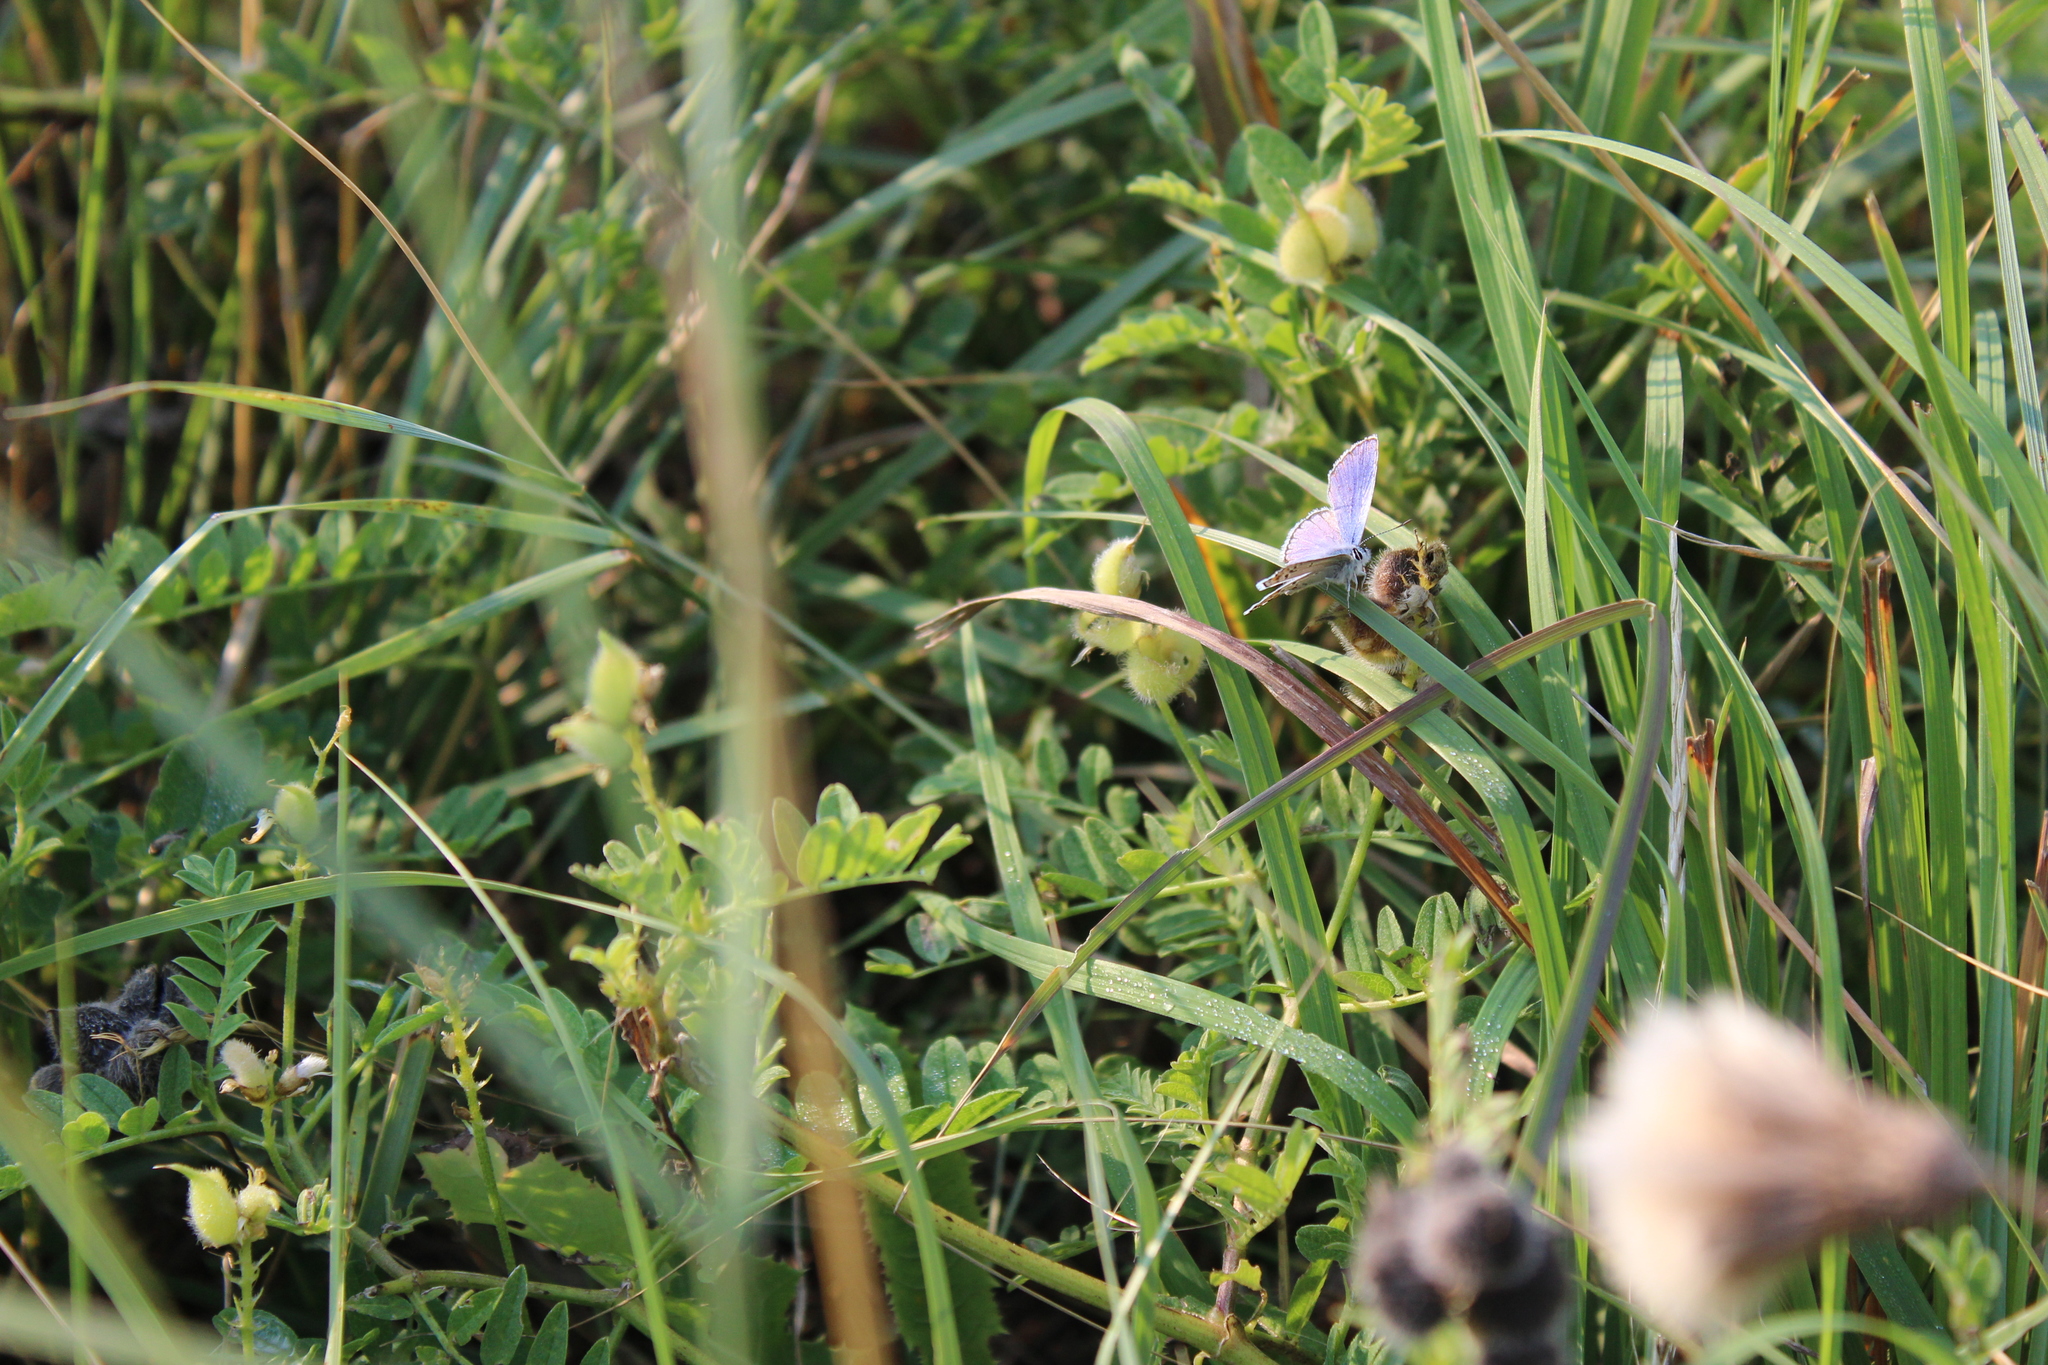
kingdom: Animalia
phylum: Arthropoda
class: Insecta
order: Lepidoptera
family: Lycaenidae
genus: Lycaeides
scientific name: Lycaeides melissa
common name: Melissa blue
